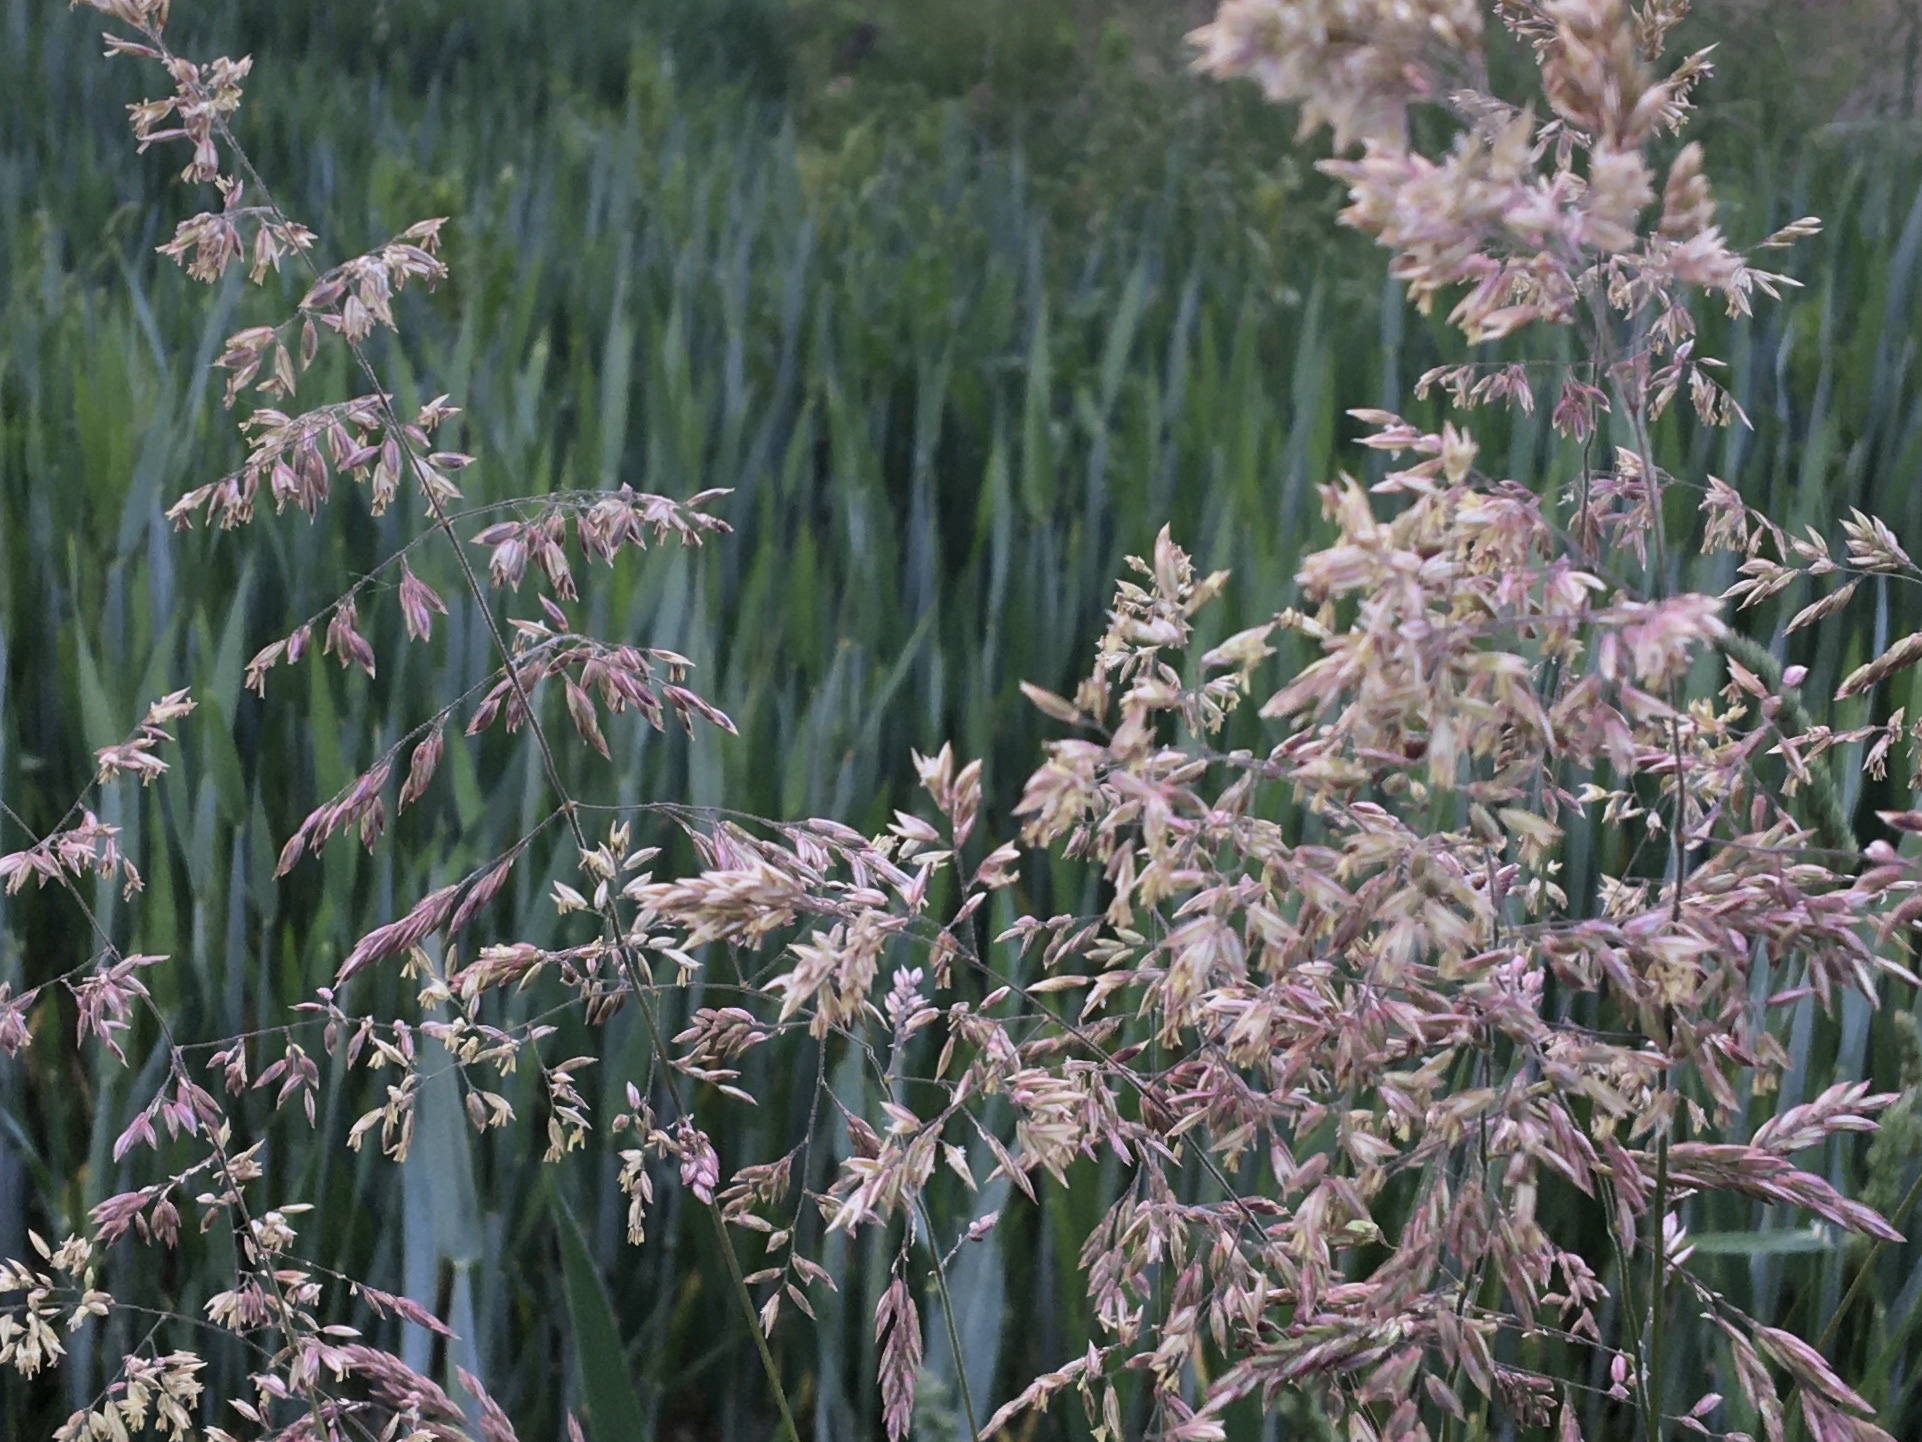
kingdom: Plantae
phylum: Tracheophyta
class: Liliopsida
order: Poales
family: Poaceae
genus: Holcus
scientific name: Holcus lanatus
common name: Yorkshire-fog
